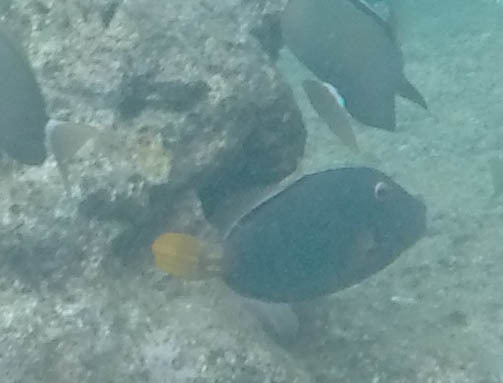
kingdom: Animalia
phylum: Chordata
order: Tetraodontiformes
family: Monacanthidae
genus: Cantherhines
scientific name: Cantherhines dumerilii
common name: Barred filefish
